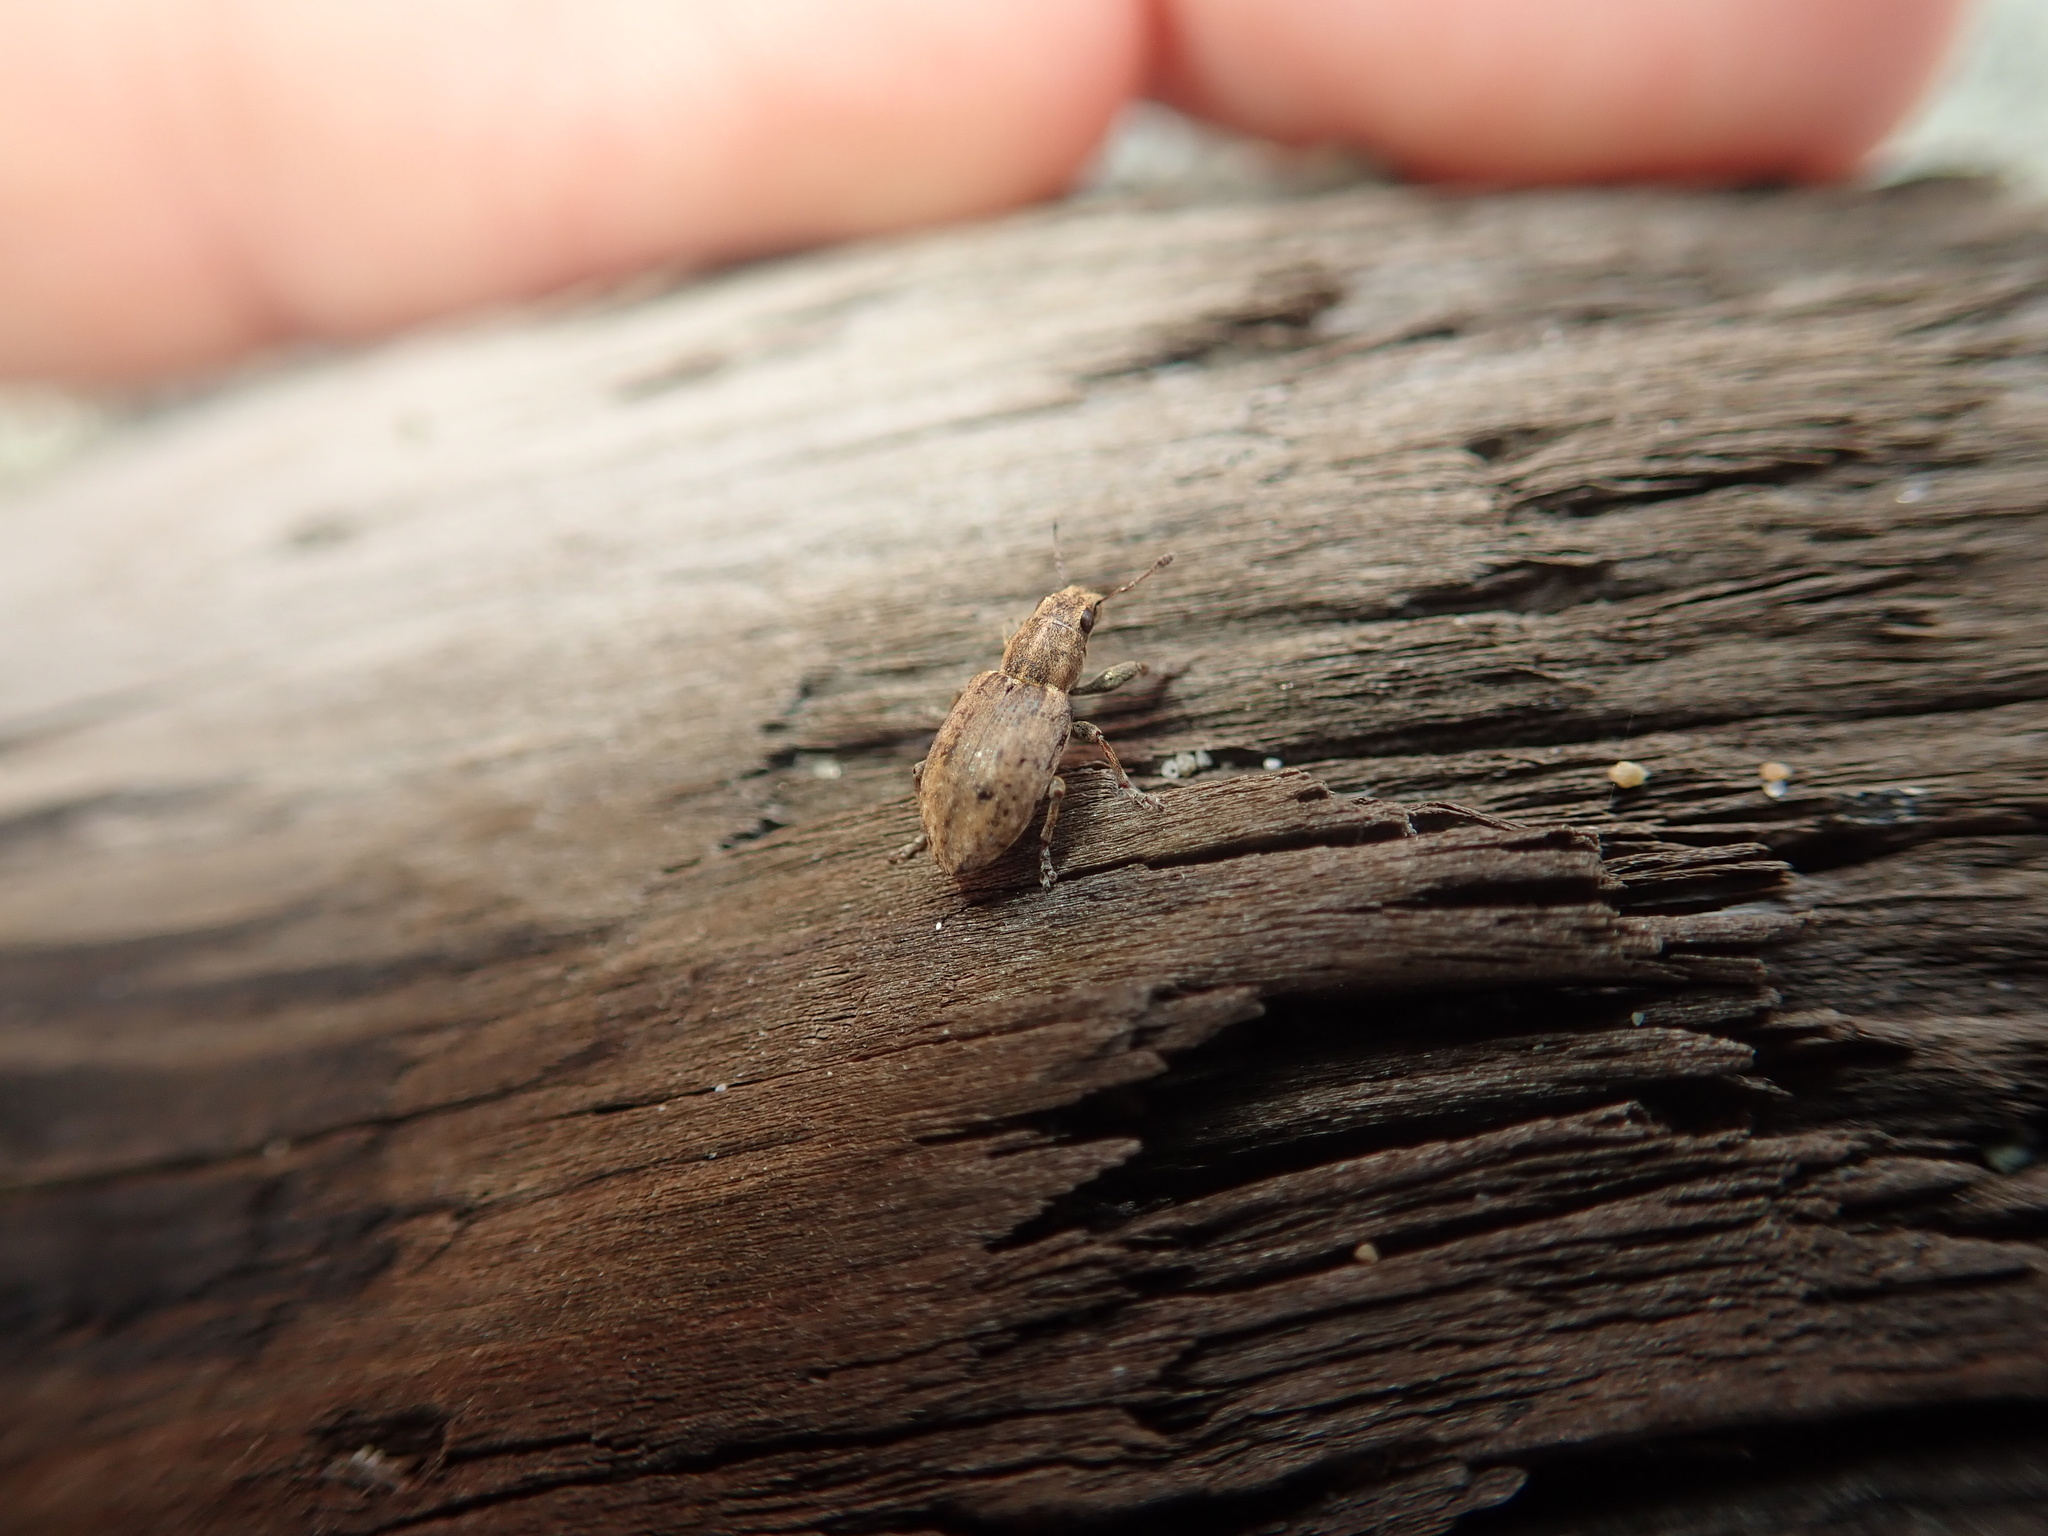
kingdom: Animalia
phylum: Arthropoda
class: Insecta
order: Coleoptera
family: Curculionidae
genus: Sitona
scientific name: Sitona obsoletus
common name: Weevil
